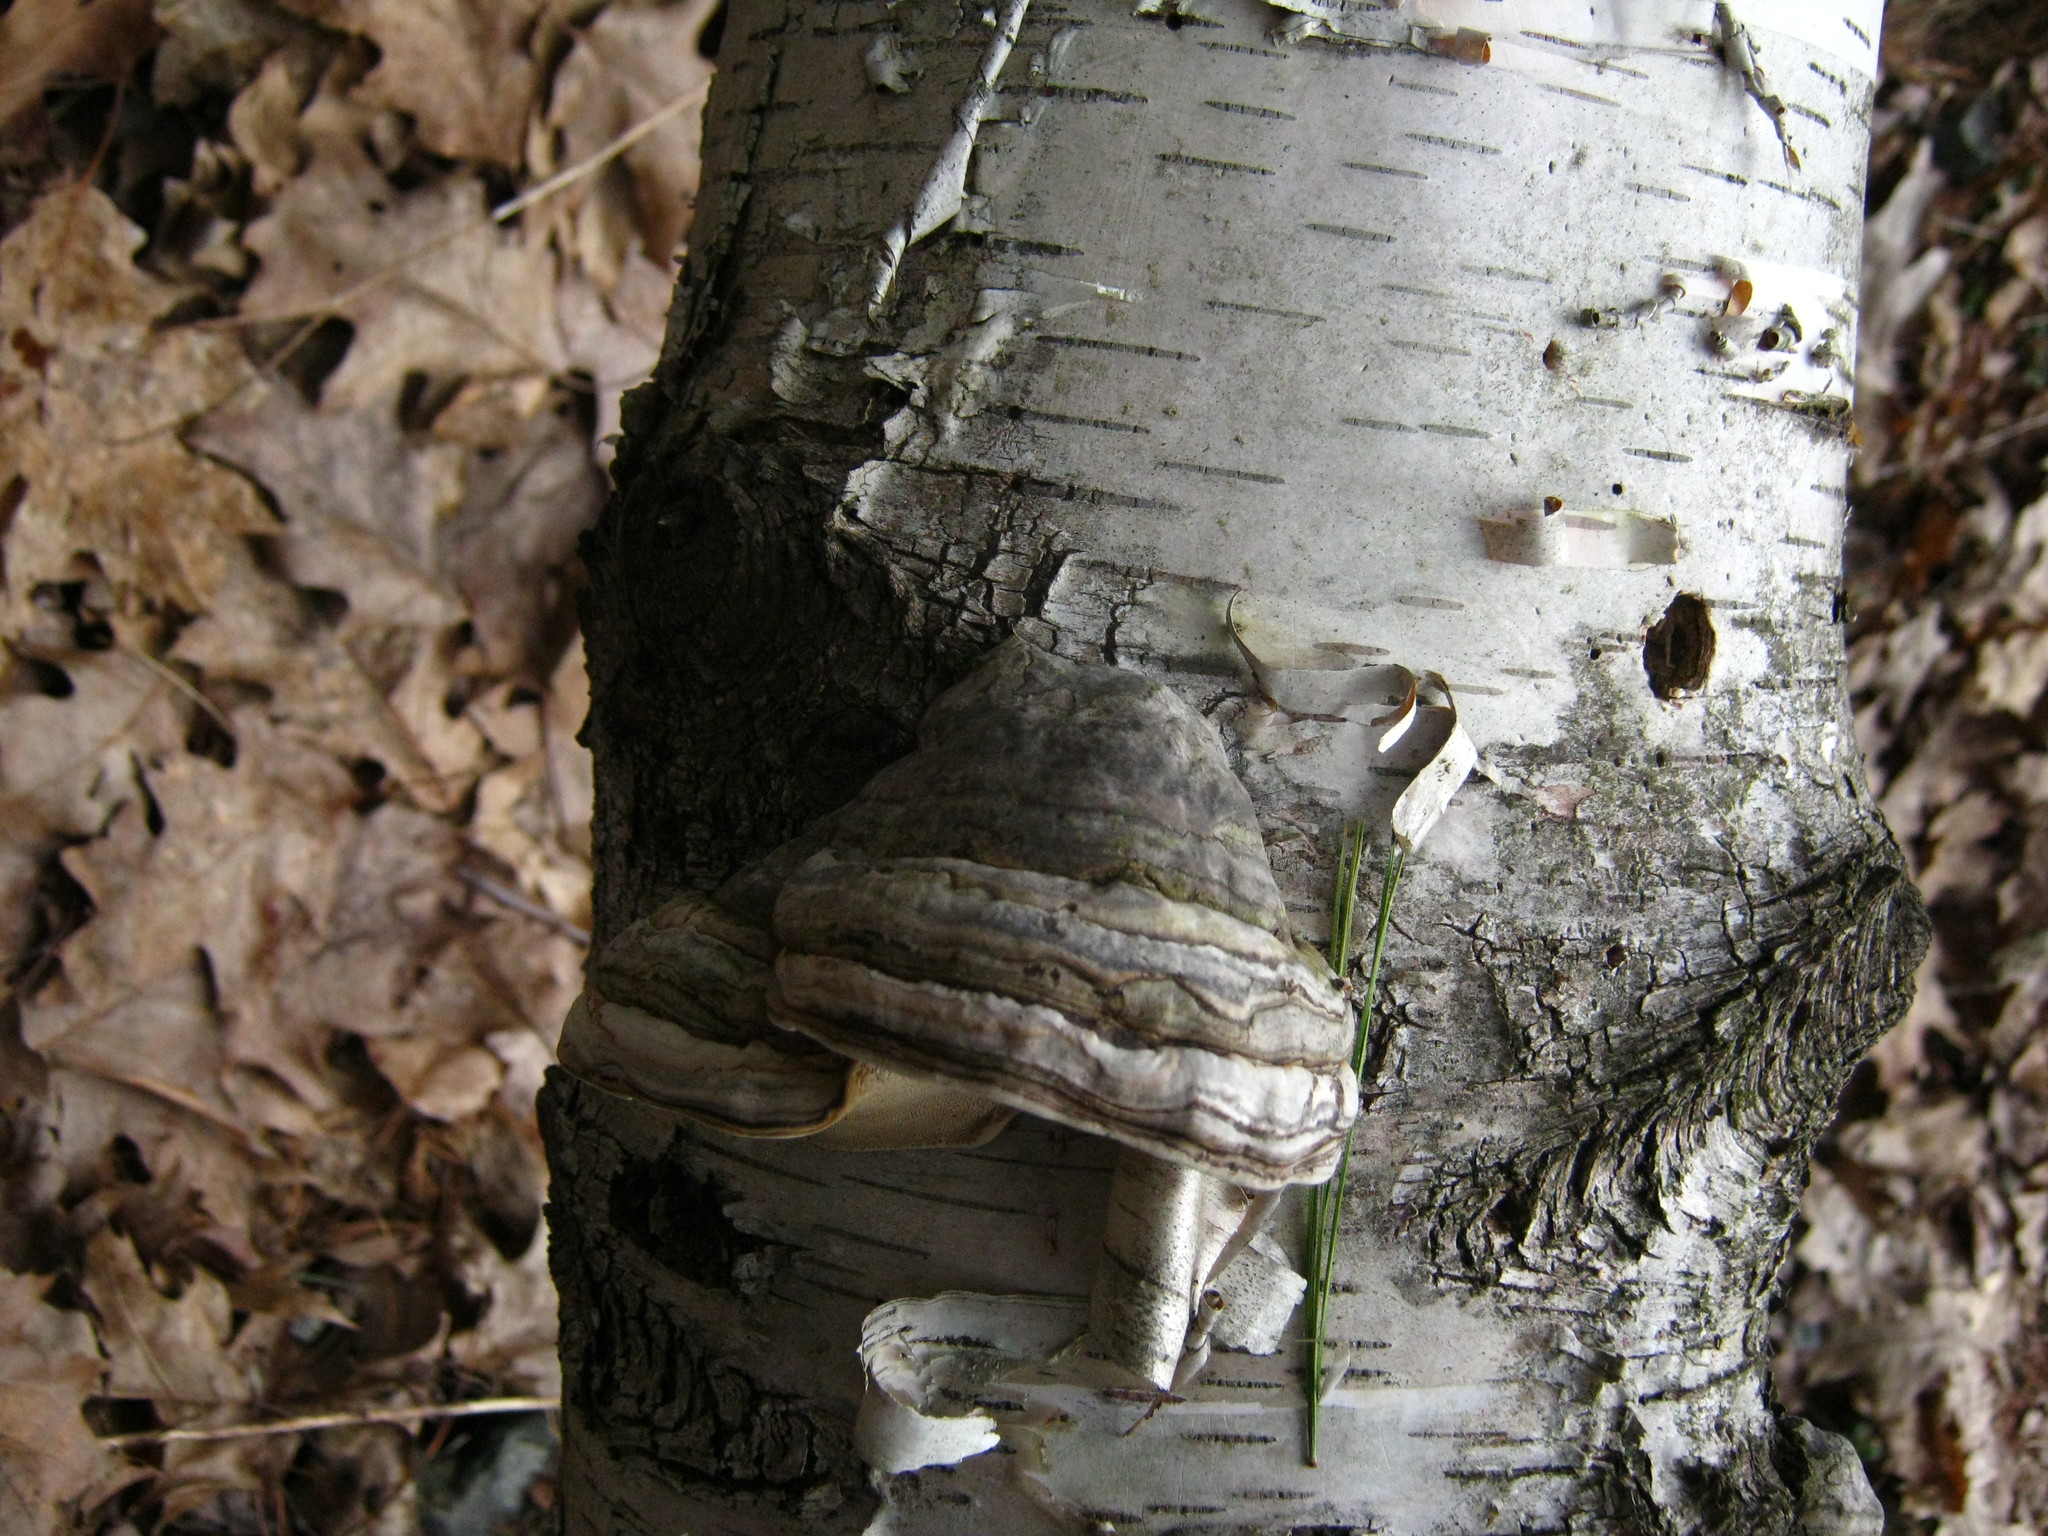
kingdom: Fungi
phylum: Basidiomycota
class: Agaricomycetes
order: Polyporales
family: Polyporaceae
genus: Fomes
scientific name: Fomes fomentarius
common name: Hoof fungus
